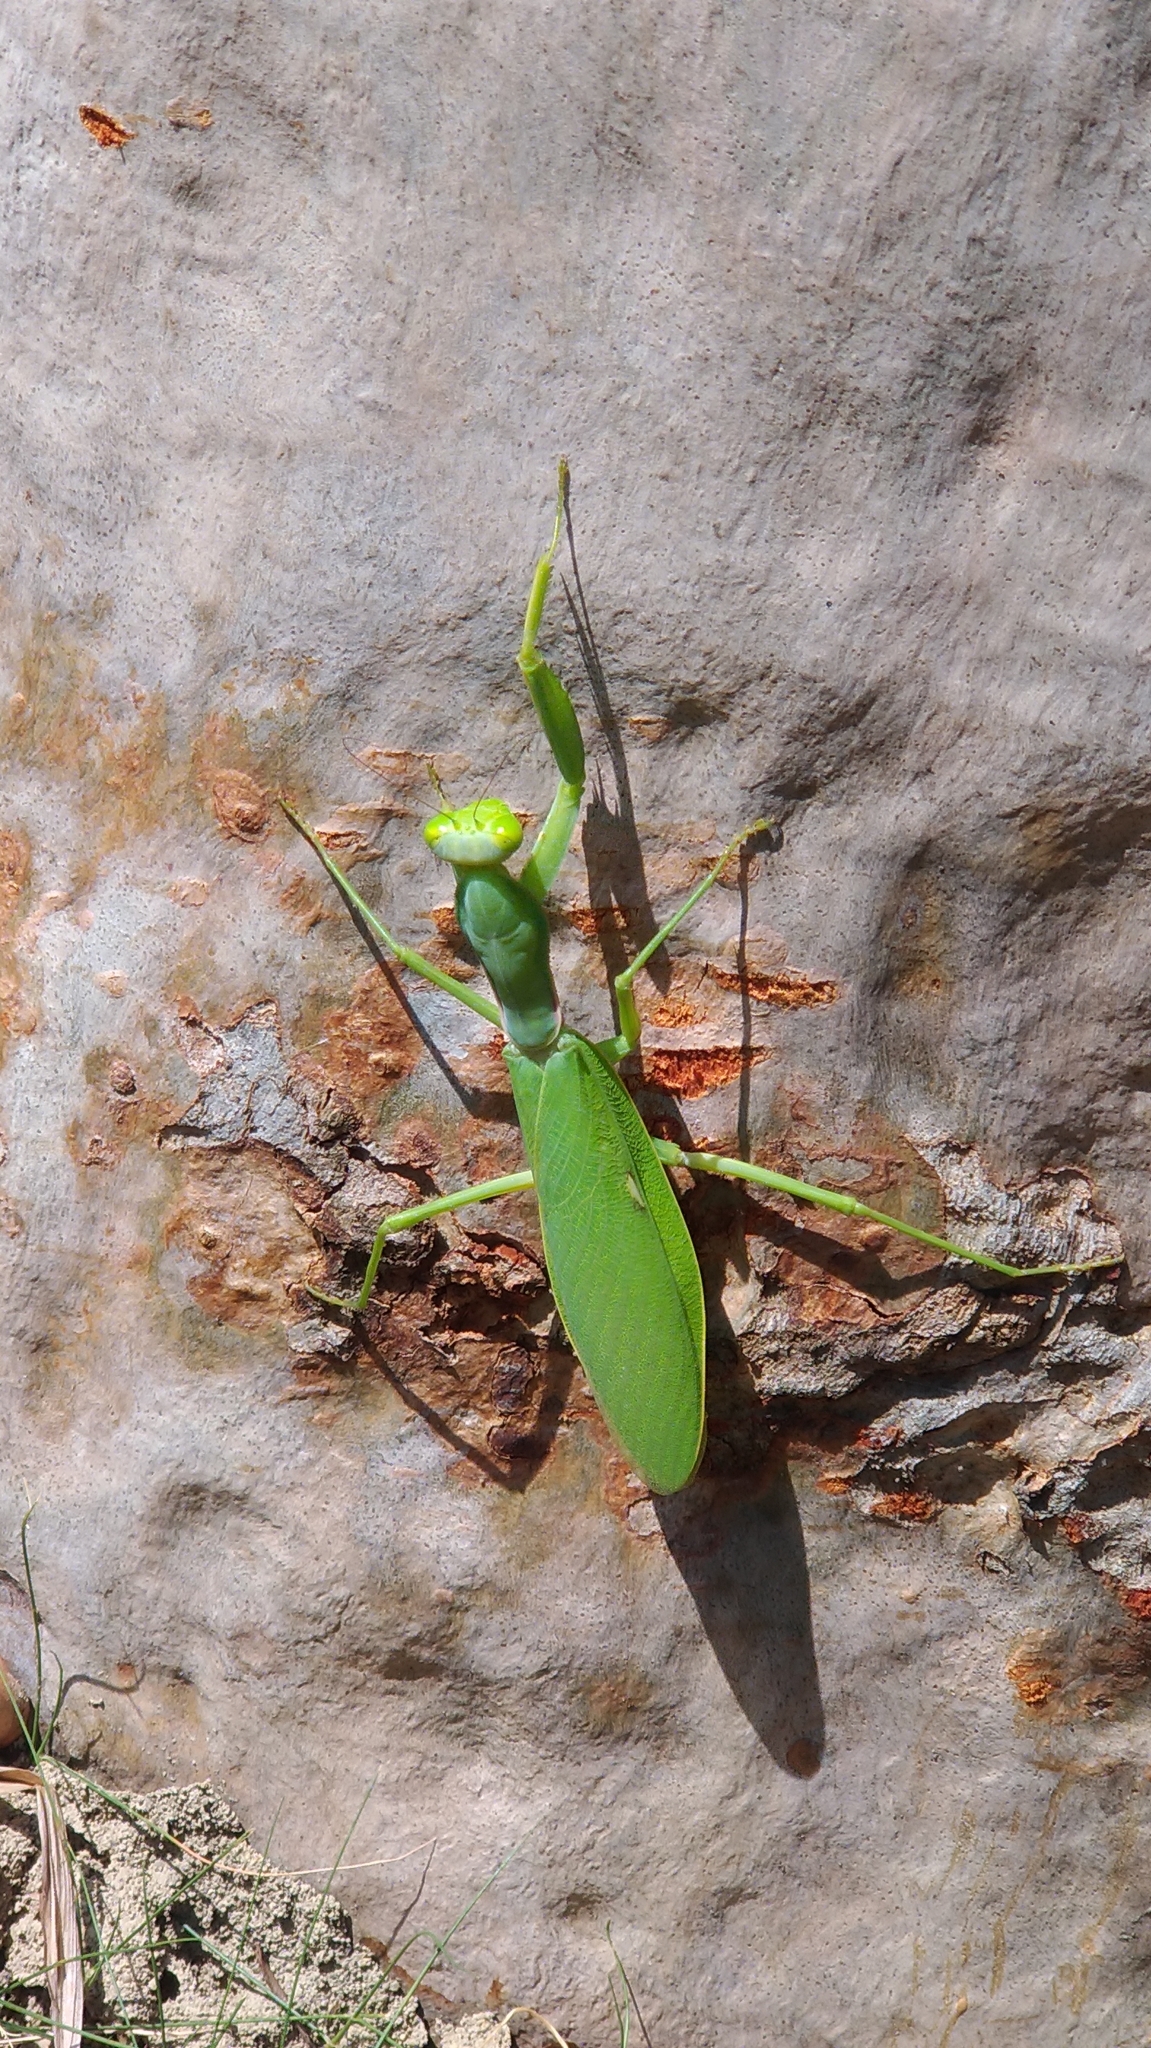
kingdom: Animalia
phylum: Arthropoda
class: Insecta
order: Mantodea
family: Mantidae
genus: Hierodula
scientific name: Hierodula patellifera
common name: Asian mantis
